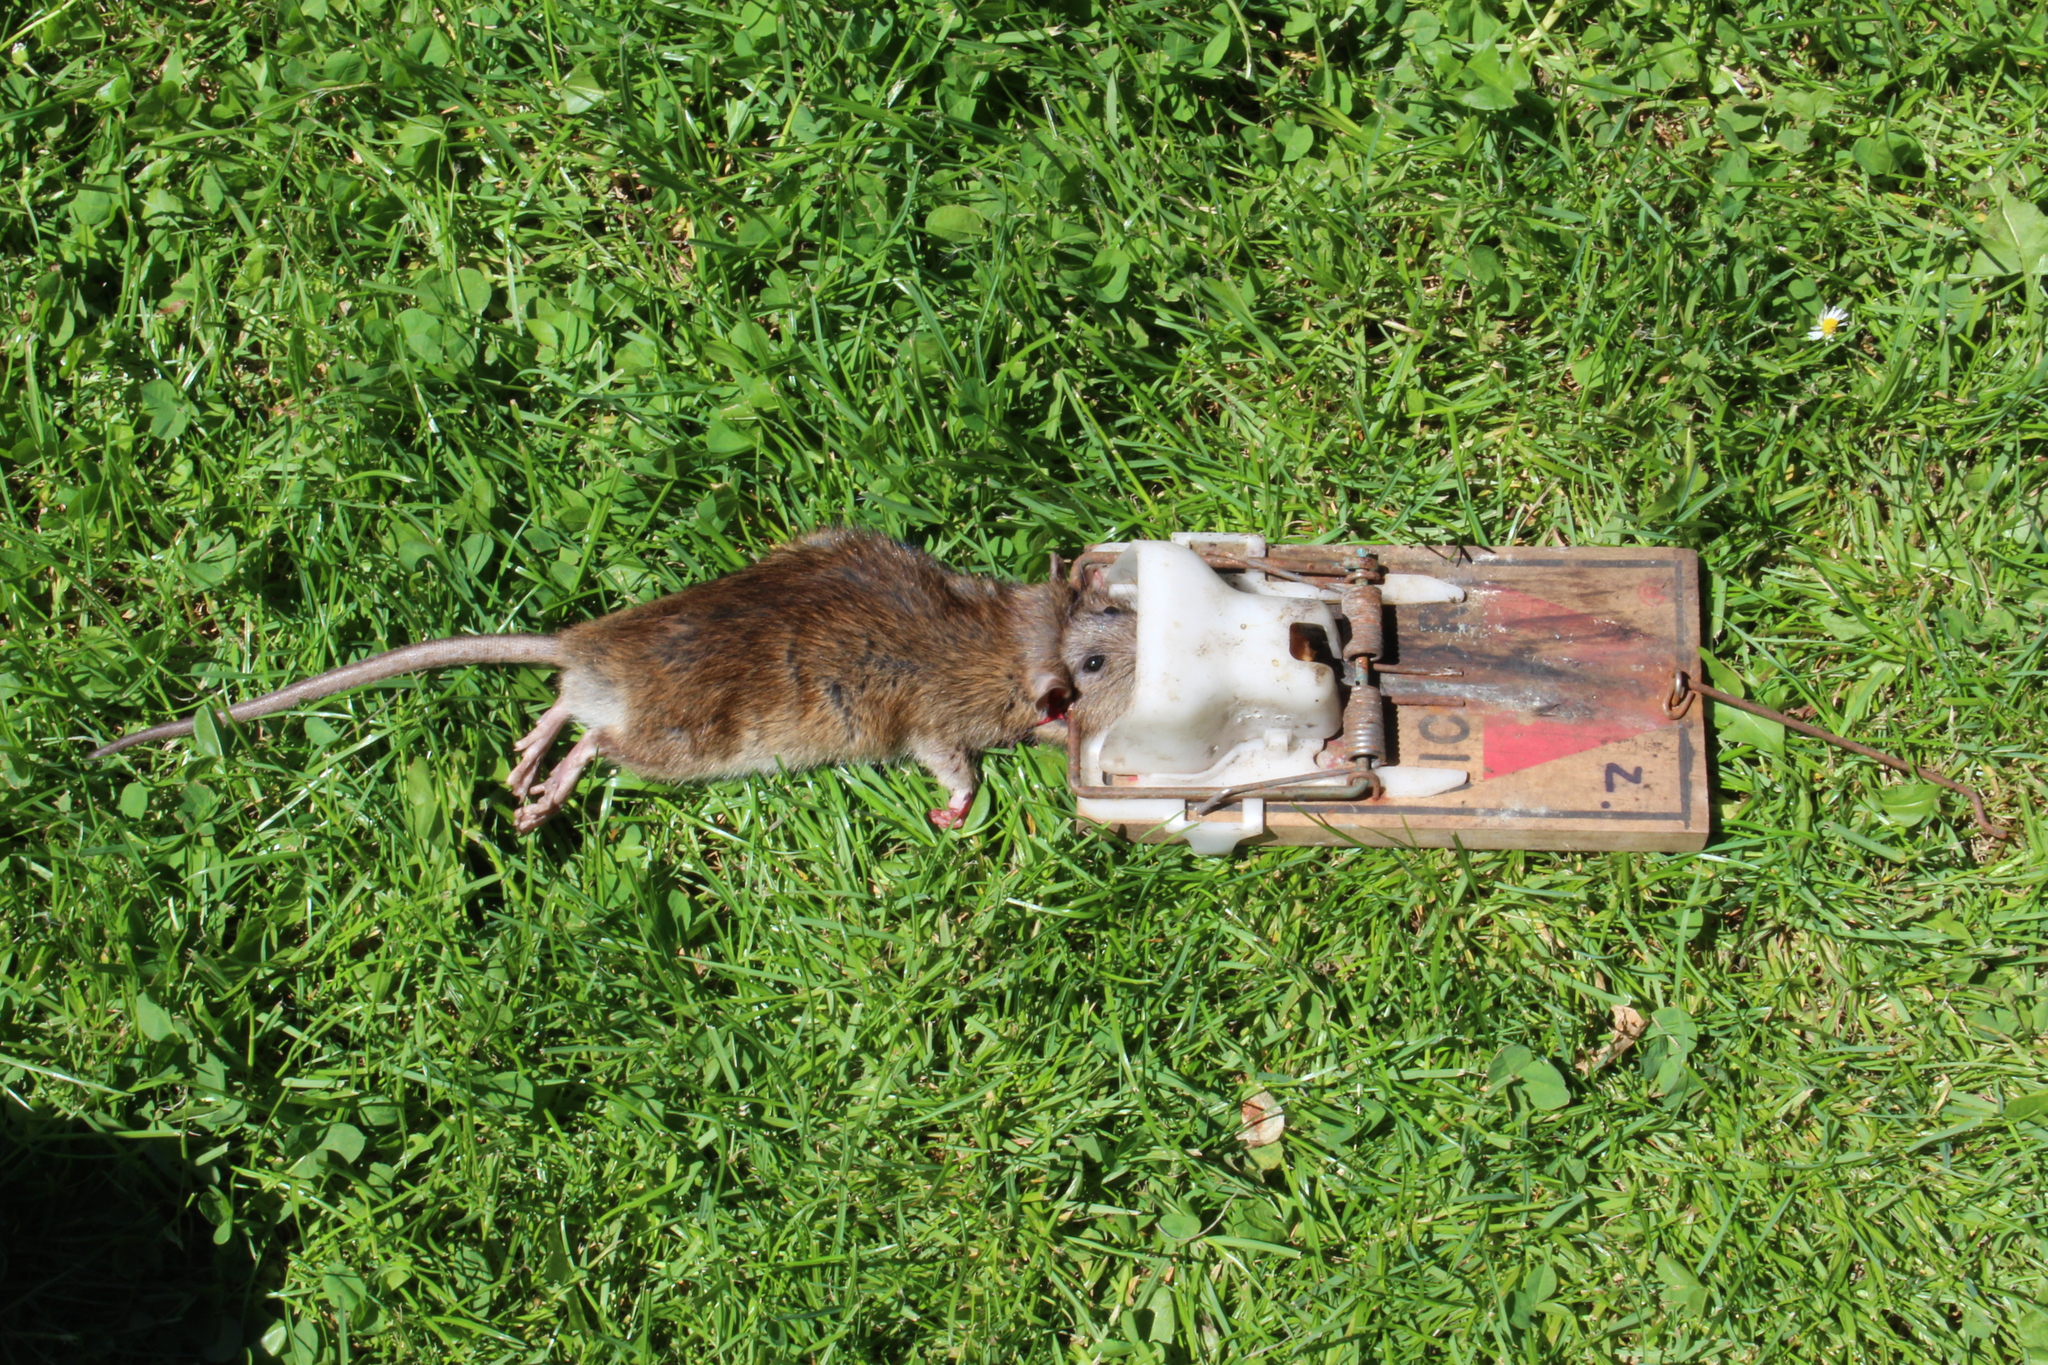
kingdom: Animalia
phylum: Chordata
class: Mammalia
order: Rodentia
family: Muridae
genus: Rattus
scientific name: Rattus norvegicus
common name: Brown rat
